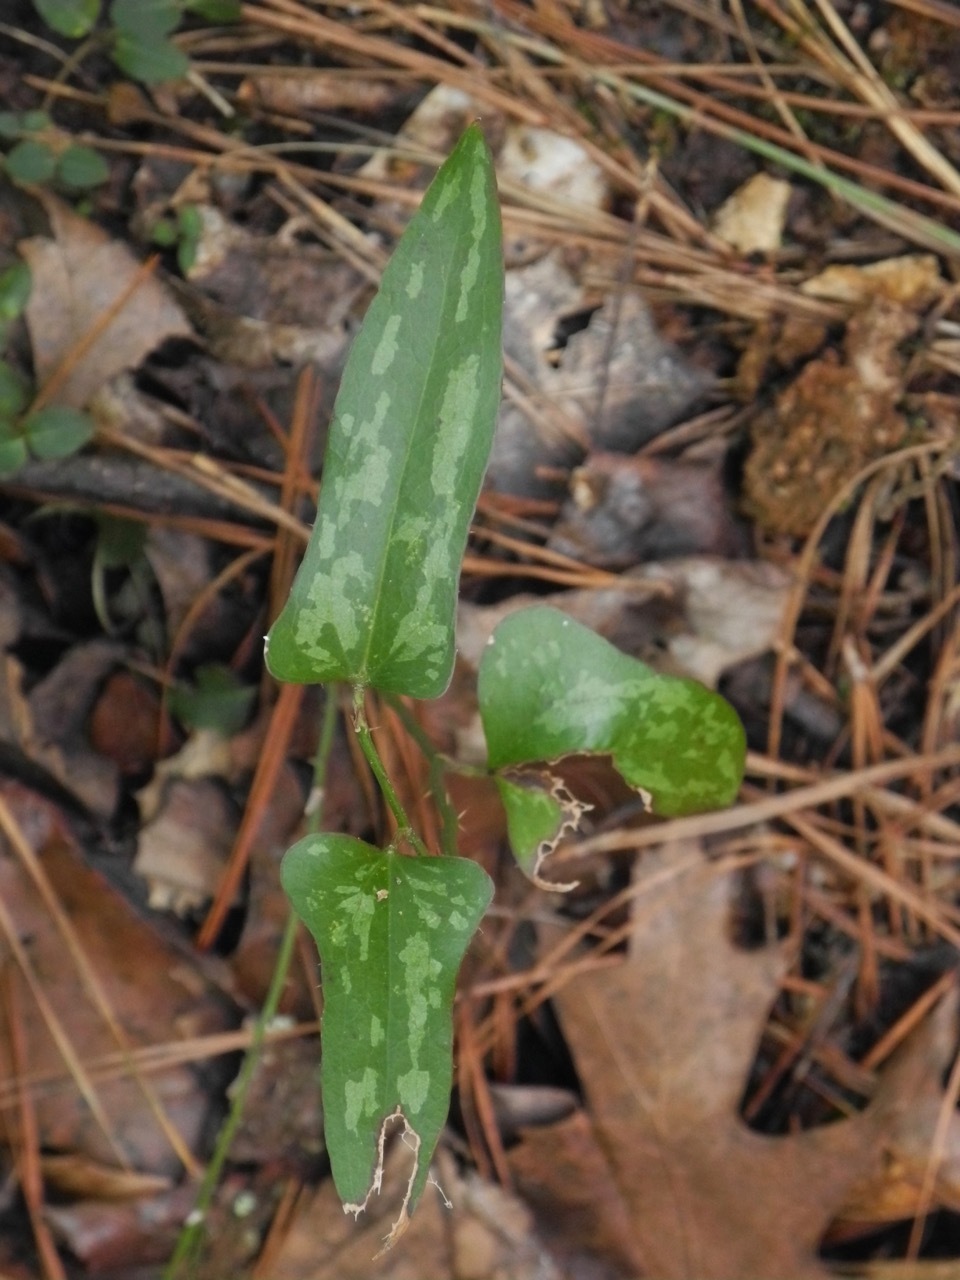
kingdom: Plantae
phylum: Tracheophyta
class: Liliopsida
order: Liliales
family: Smilacaceae
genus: Smilax
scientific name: Smilax bona-nox
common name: Catbrier
